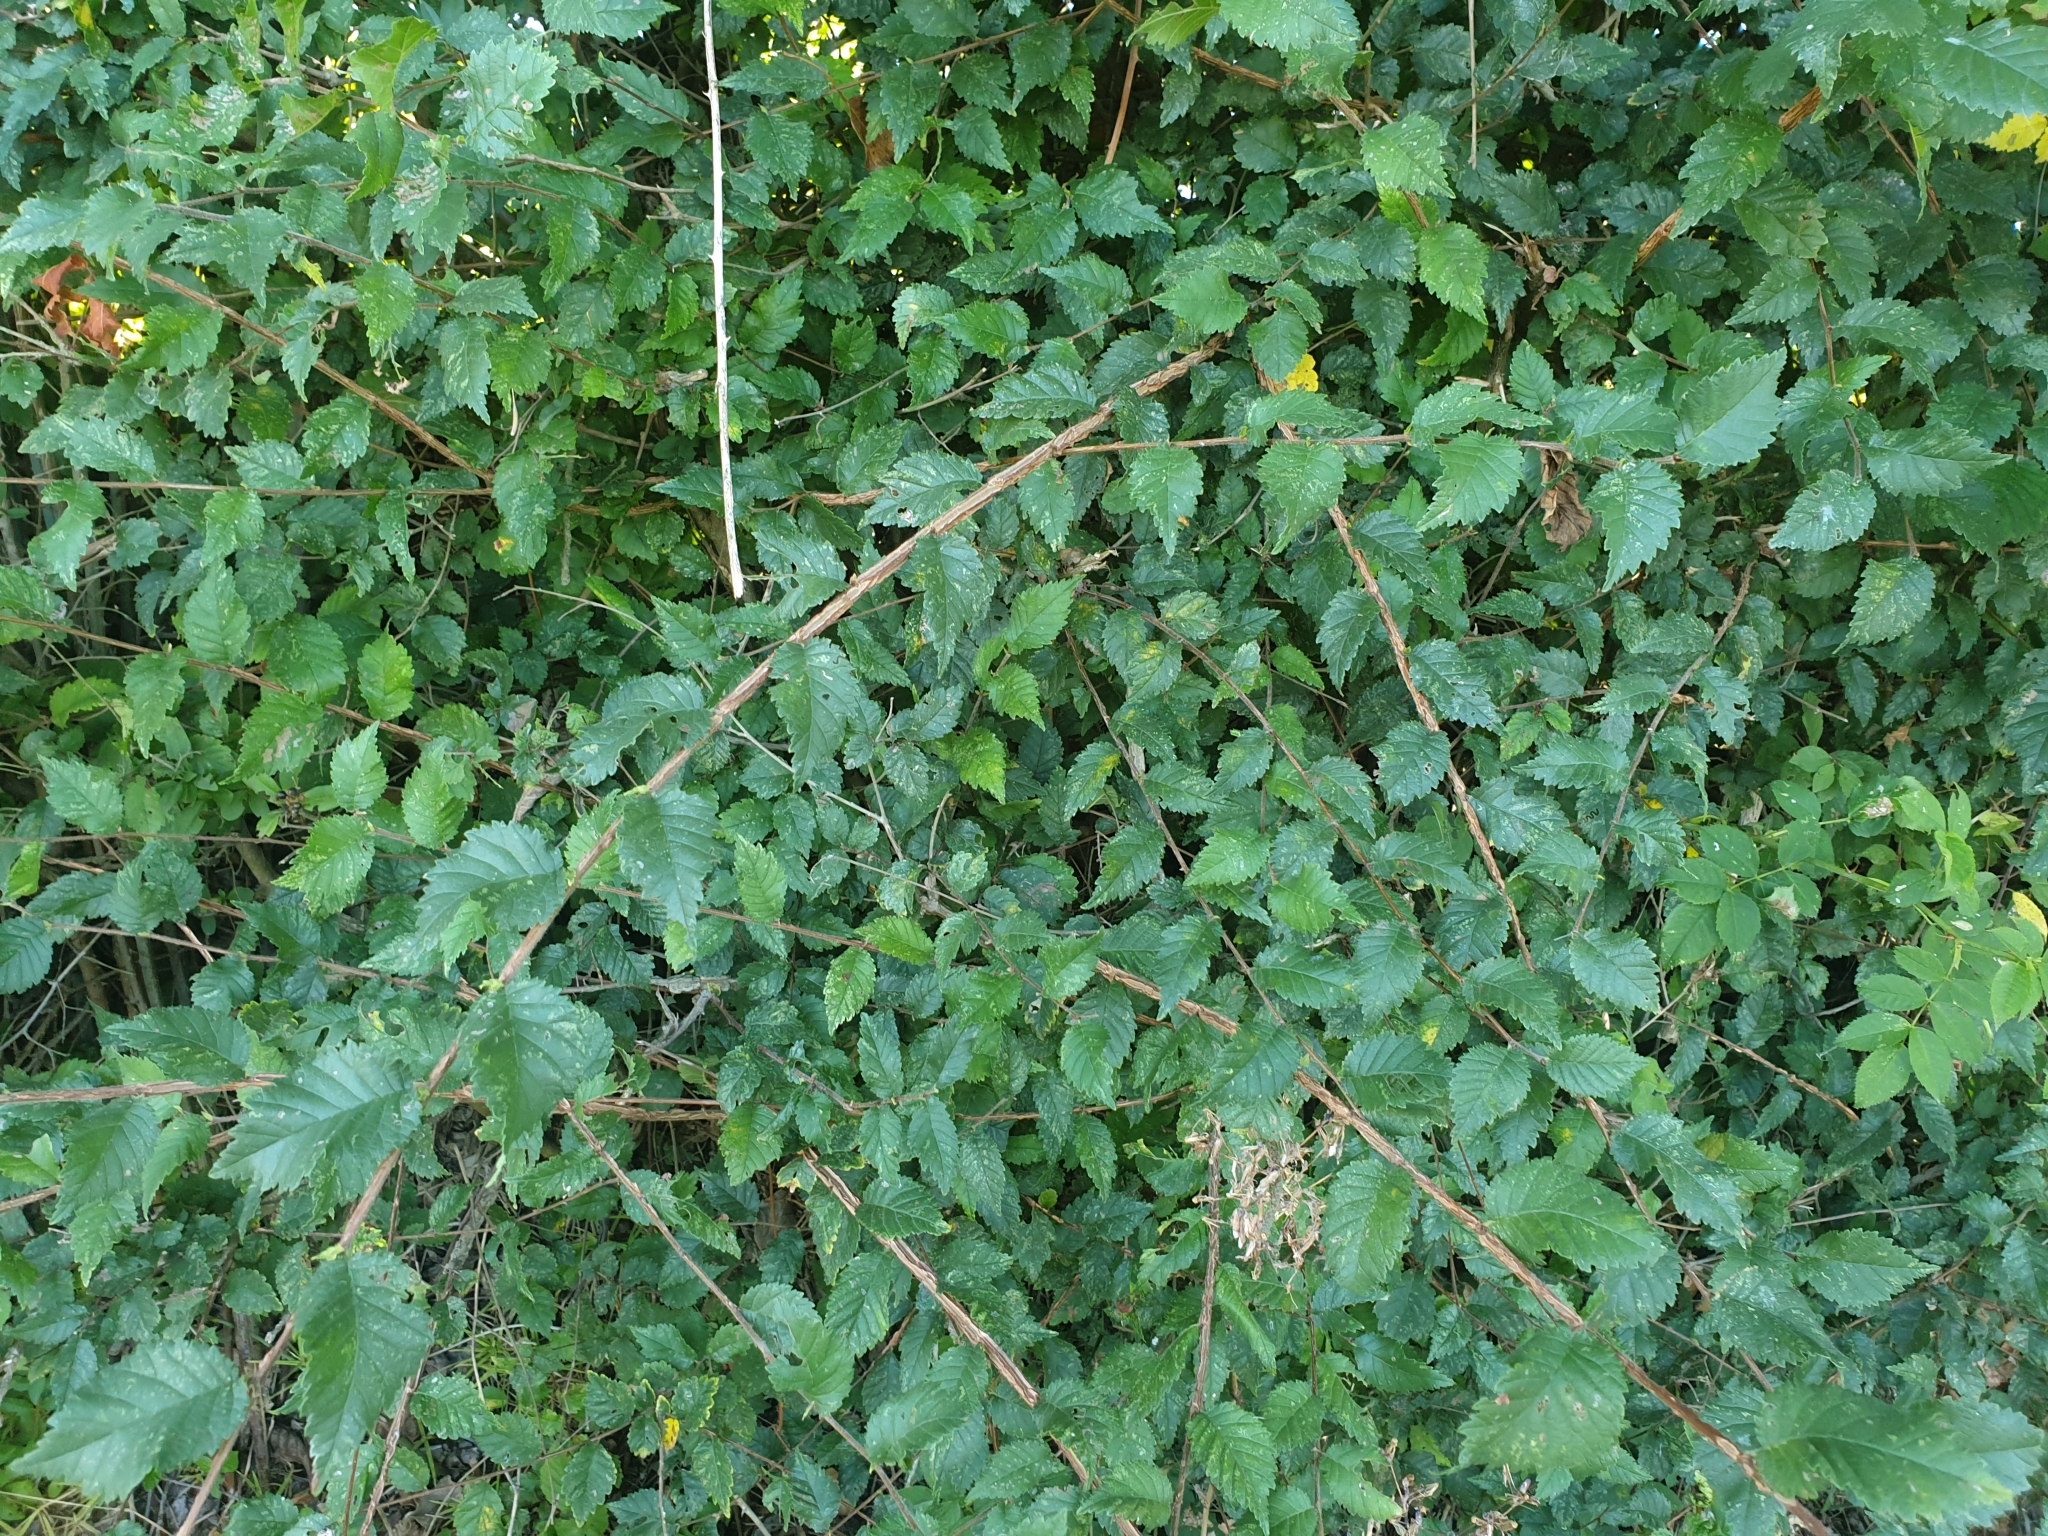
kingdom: Plantae
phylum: Tracheophyta
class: Magnoliopsida
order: Rosales
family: Ulmaceae
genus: Ulmus
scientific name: Ulmus minor
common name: Small-leaved elm
